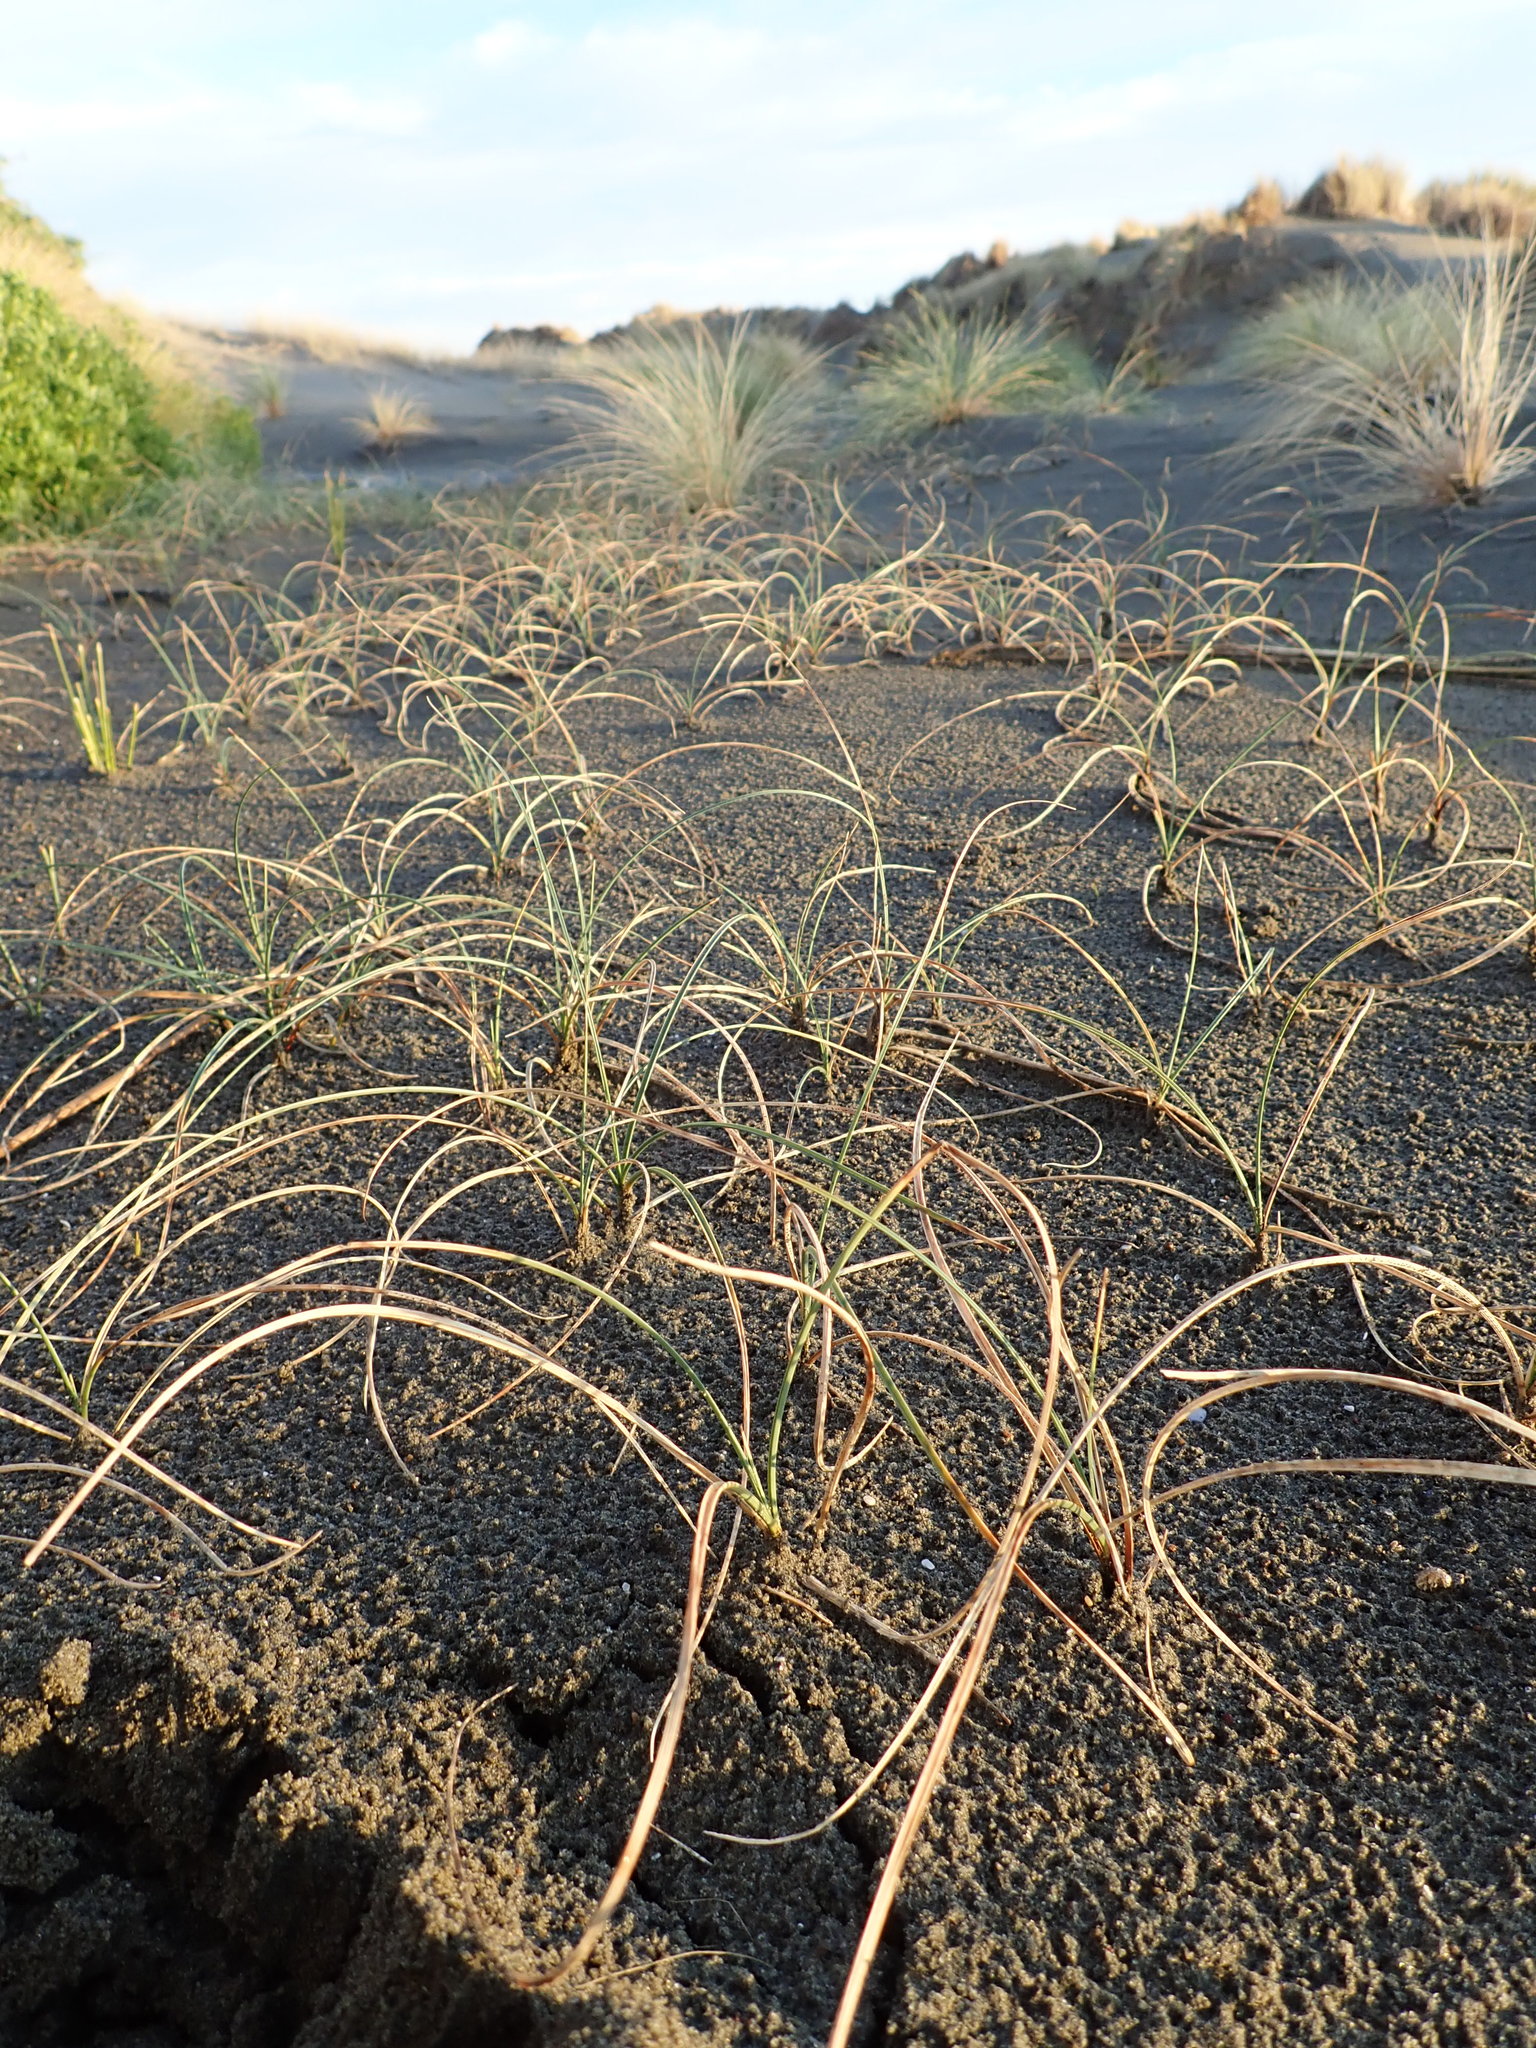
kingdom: Plantae
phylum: Tracheophyta
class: Liliopsida
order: Poales
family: Cyperaceae
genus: Carex
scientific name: Carex pumila
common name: Dwarf sedge
